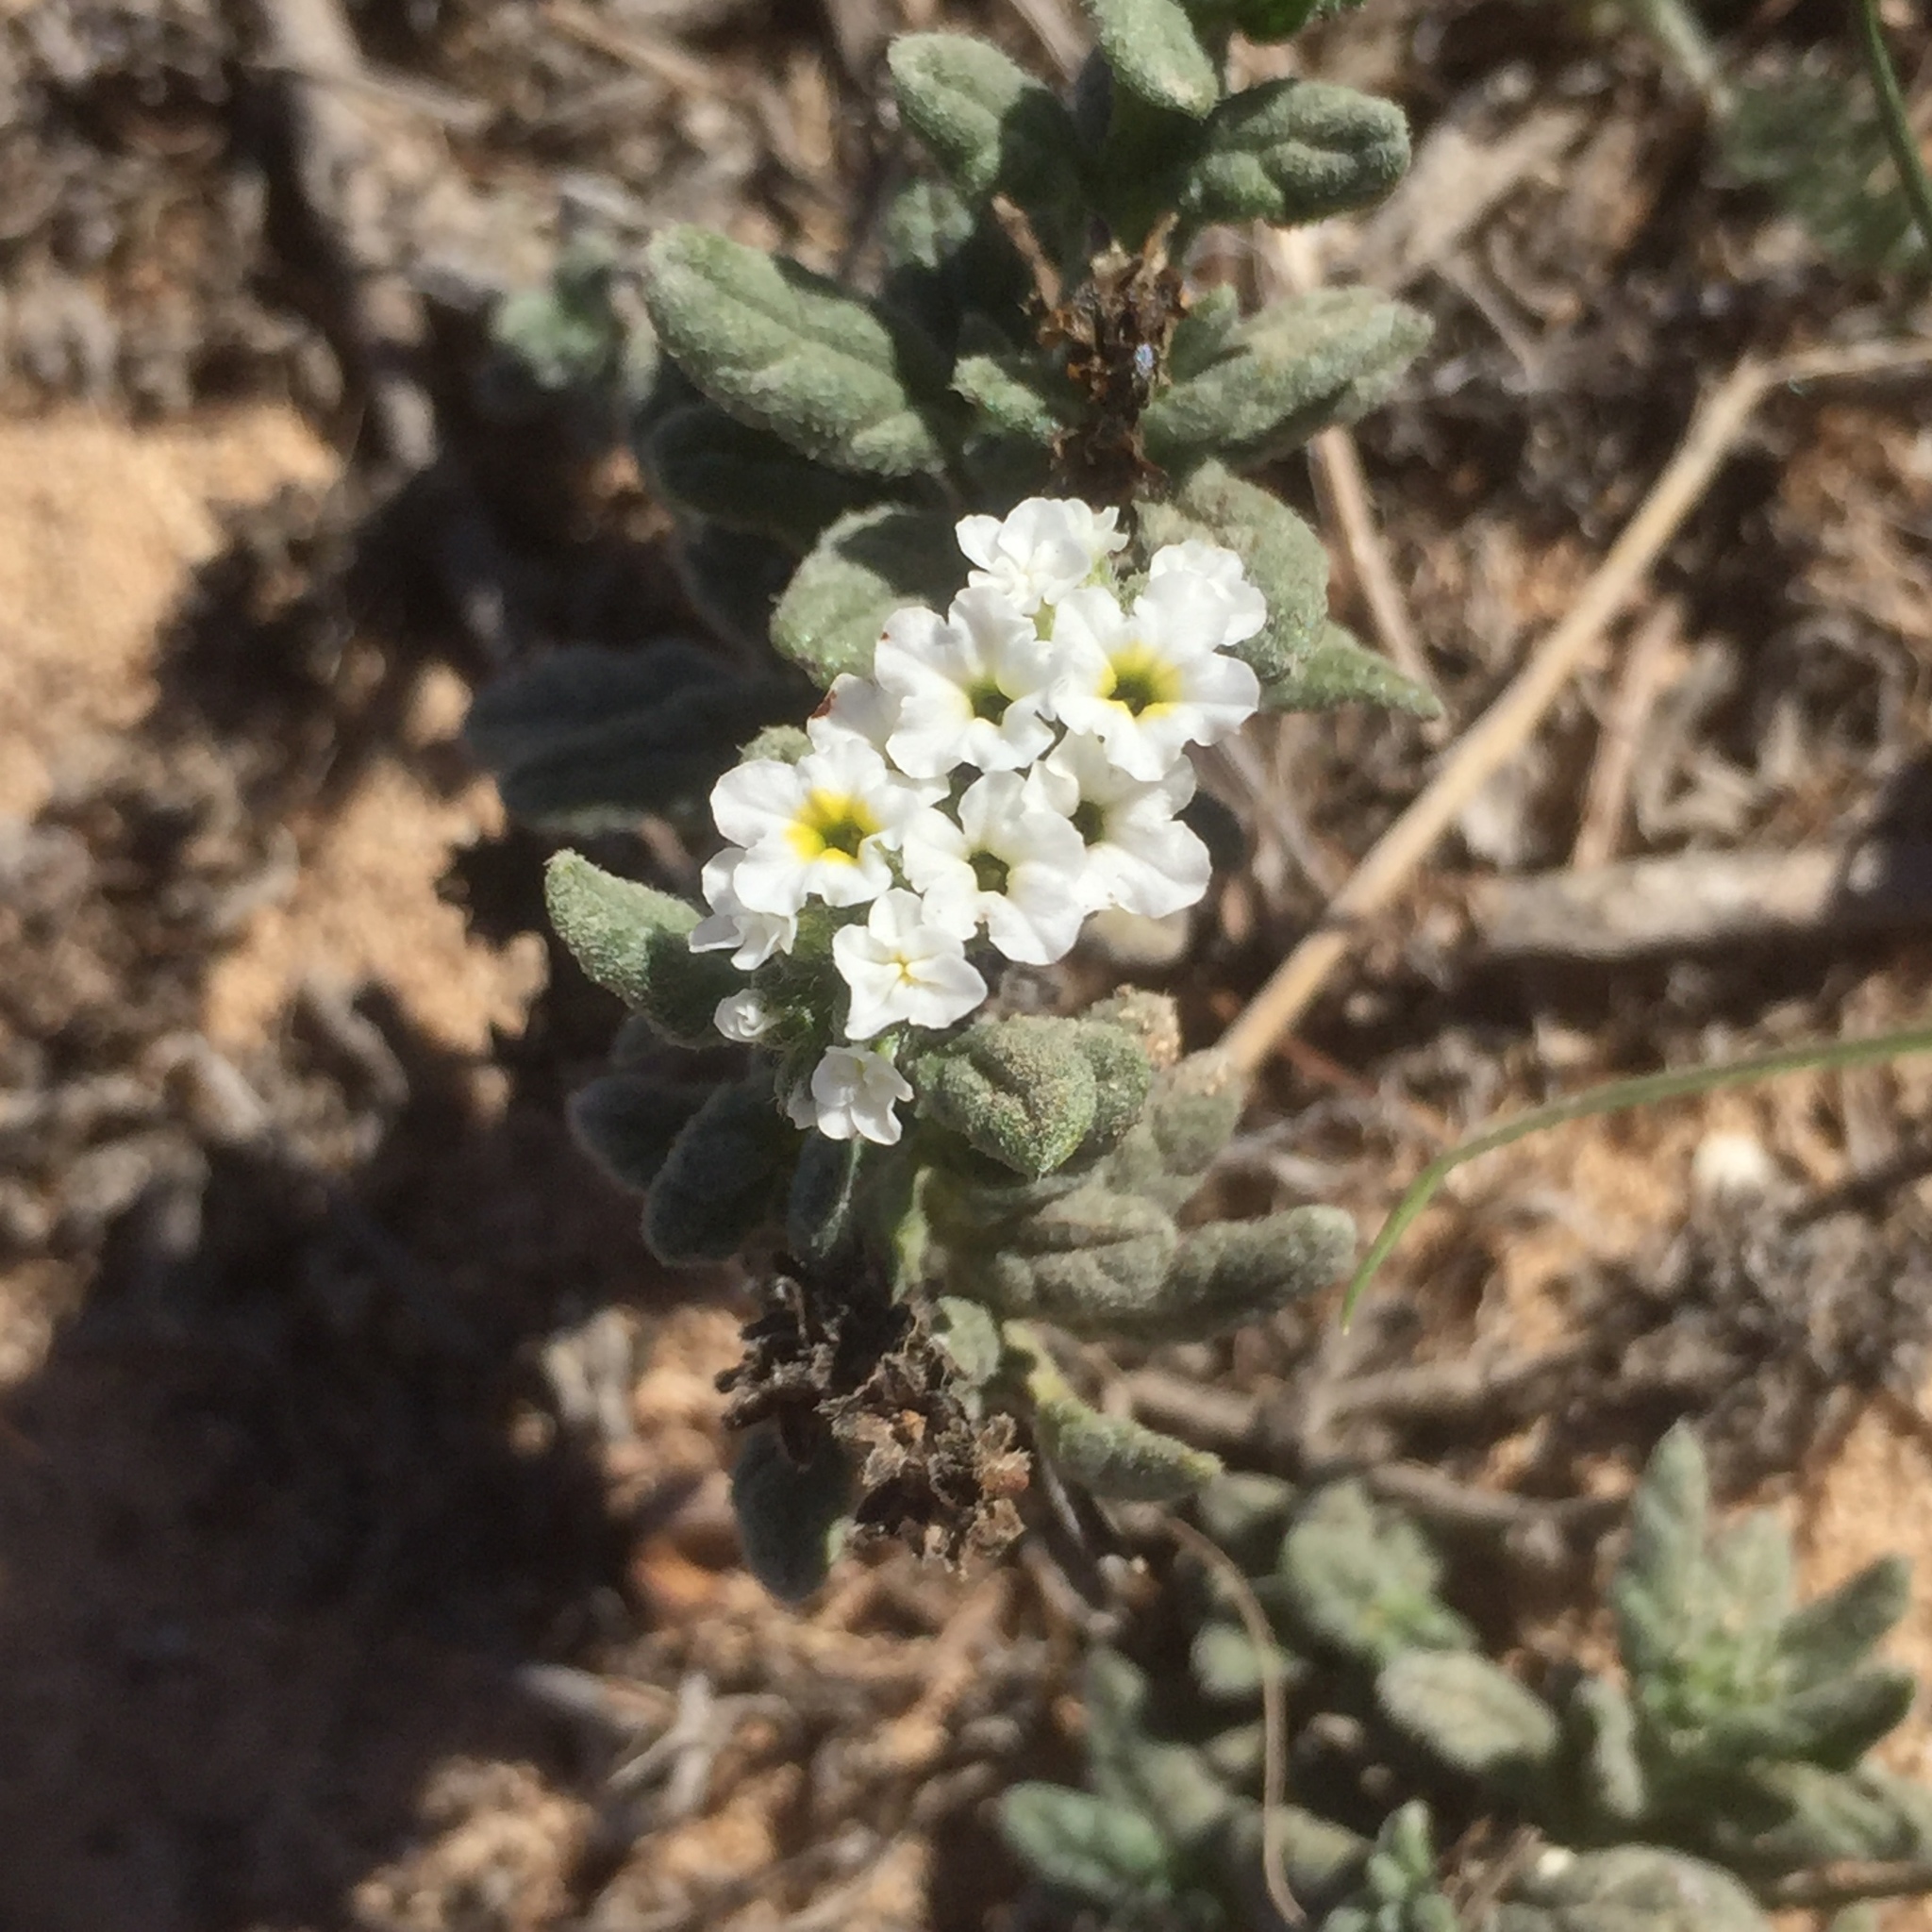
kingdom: Plantae
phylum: Tracheophyta
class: Magnoliopsida
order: Boraginales
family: Heliotropiaceae
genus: Heliotropium
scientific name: Heliotropium europaeum
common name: European heliotrope
